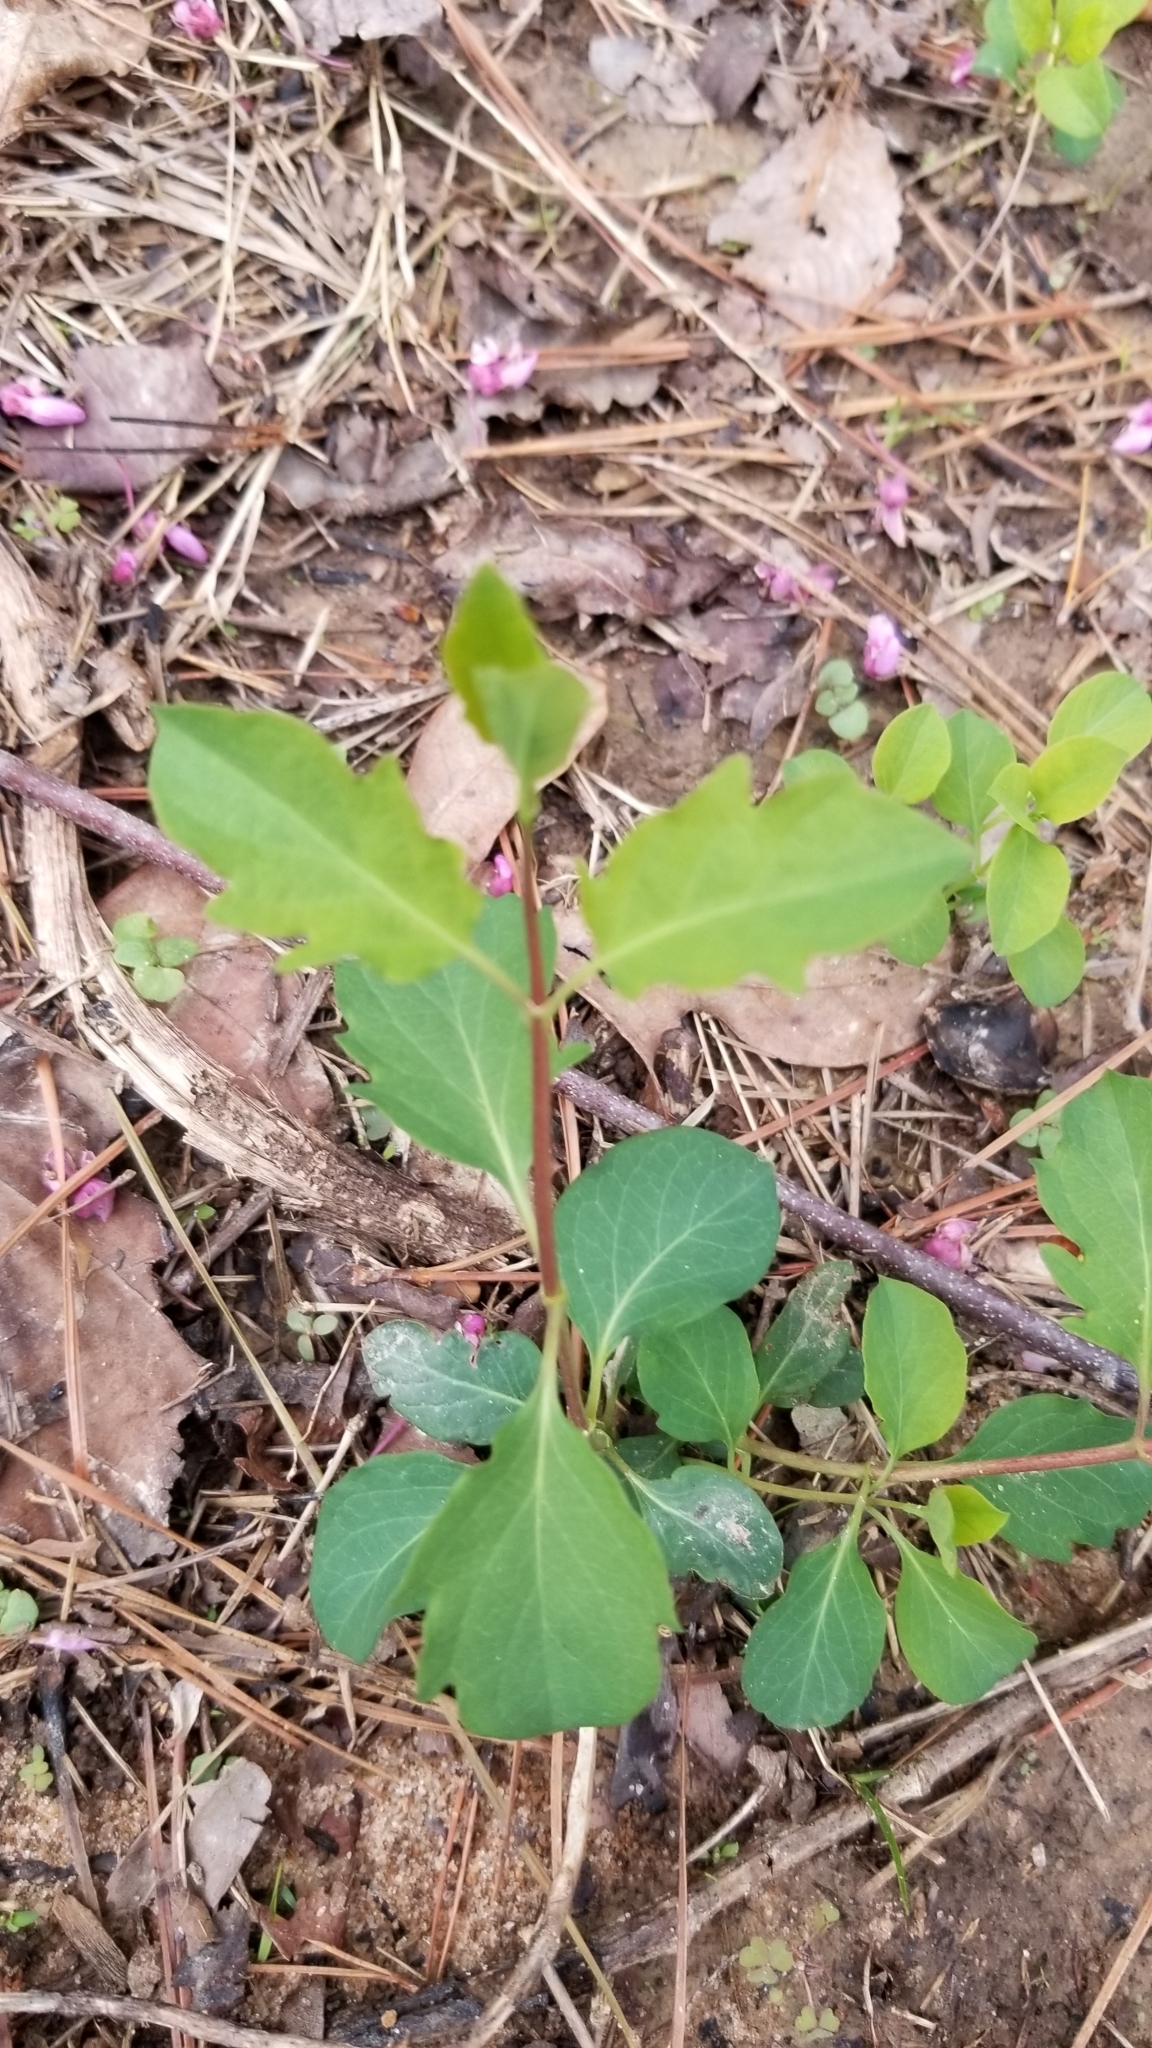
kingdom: Plantae
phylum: Tracheophyta
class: Magnoliopsida
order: Dipsacales
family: Caprifoliaceae
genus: Lonicera
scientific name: Lonicera japonica
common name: Japanese honeysuckle
